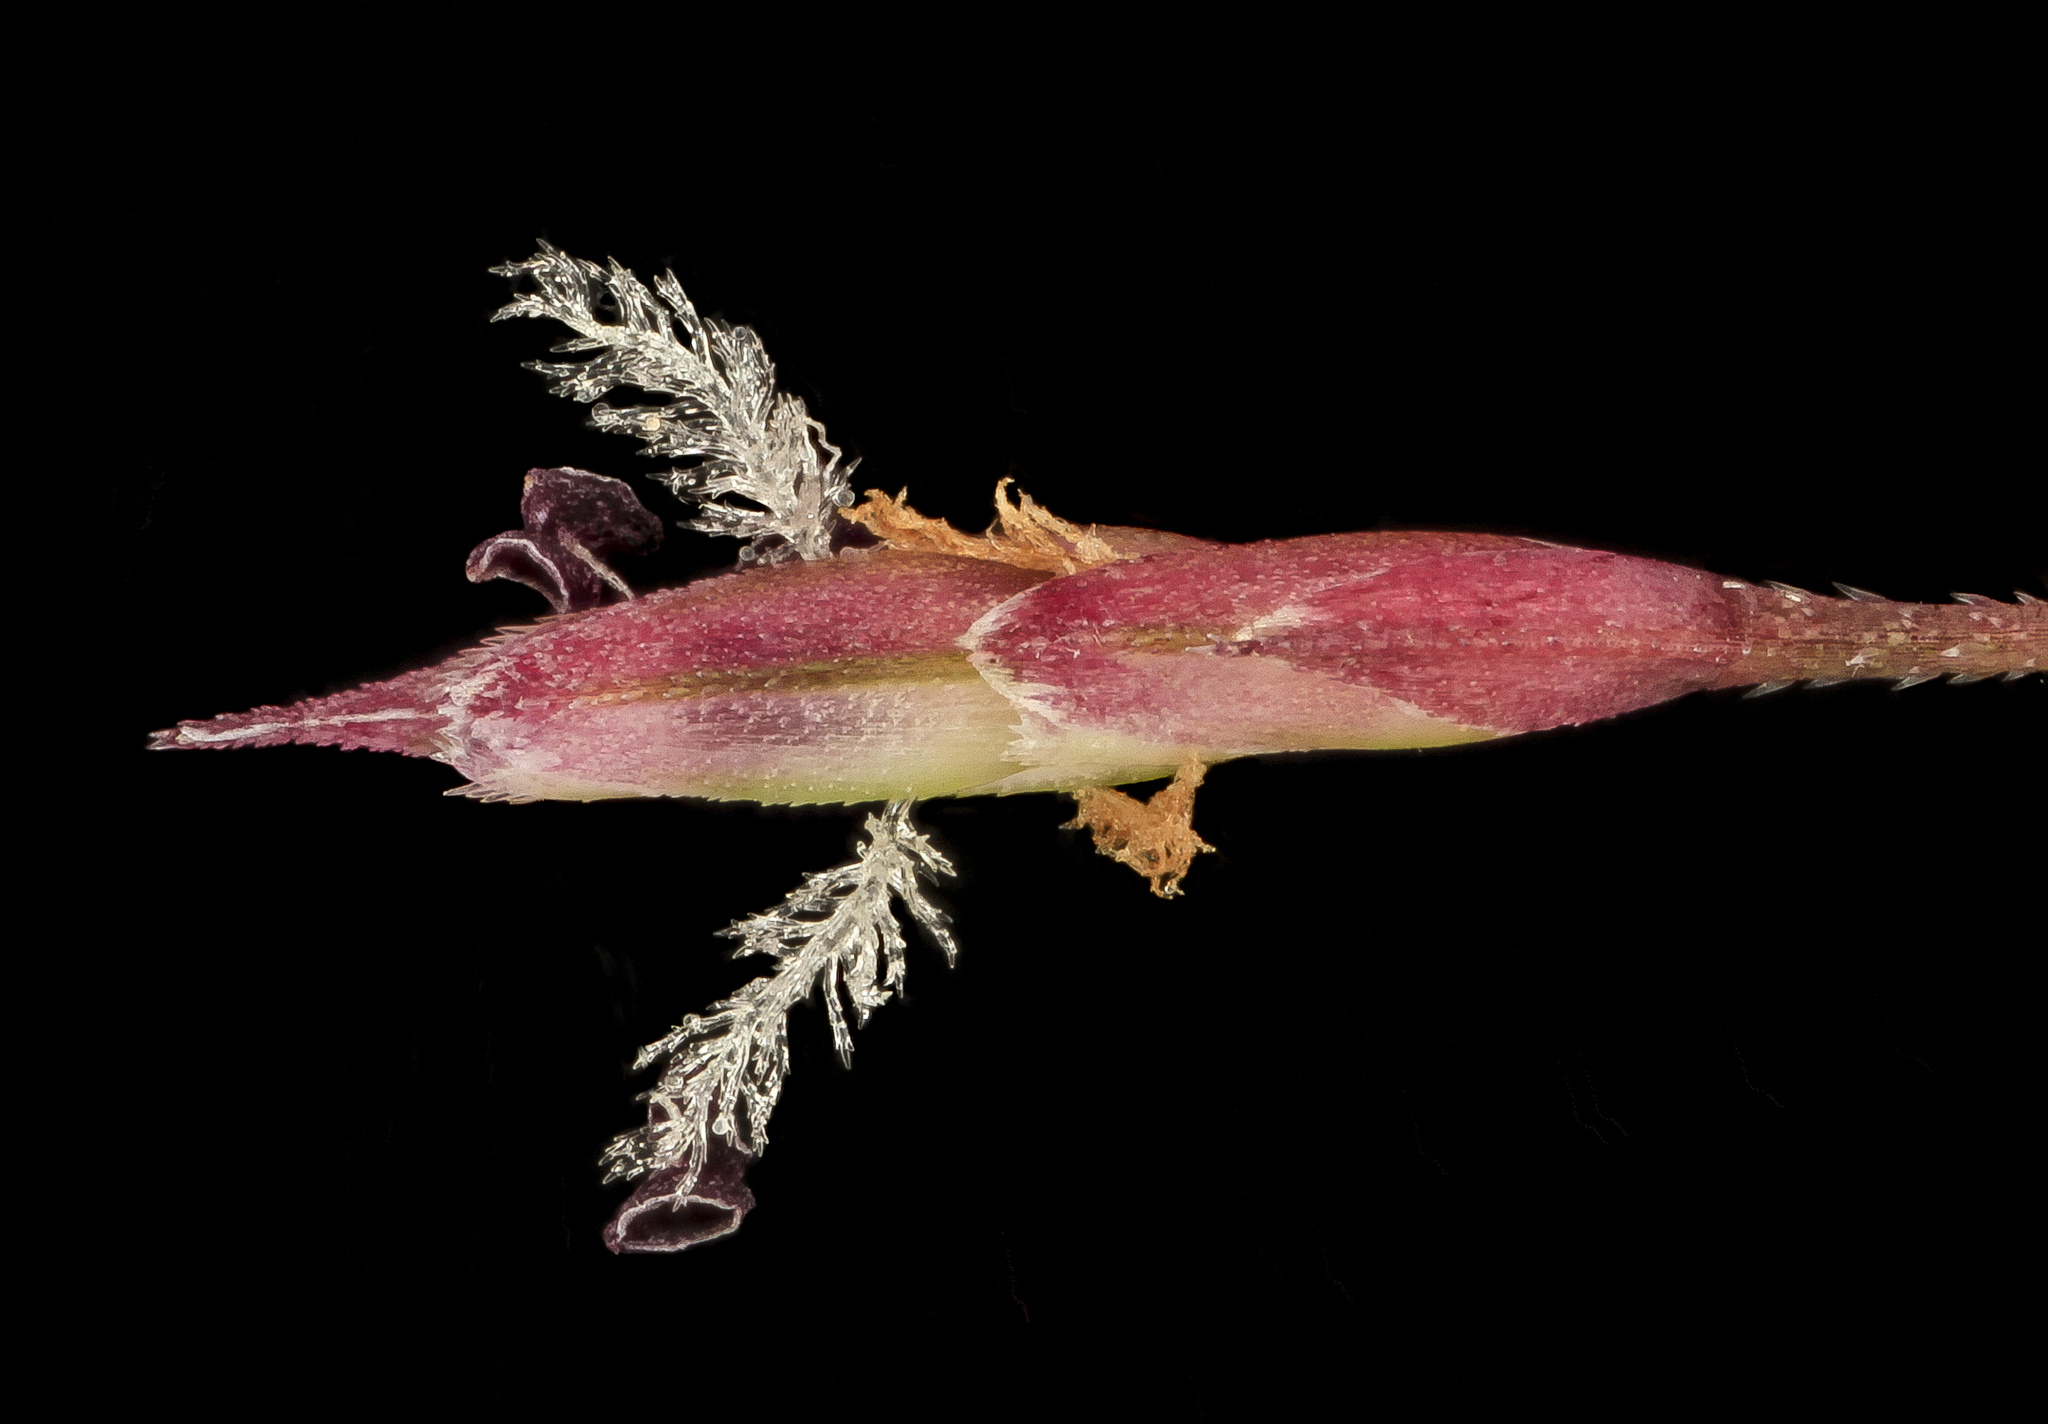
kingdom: Plantae
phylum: Tracheophyta
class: Liliopsida
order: Poales
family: Poaceae
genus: Eragrostis
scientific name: Eragrostis spectabilis
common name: Petticoat-climber
